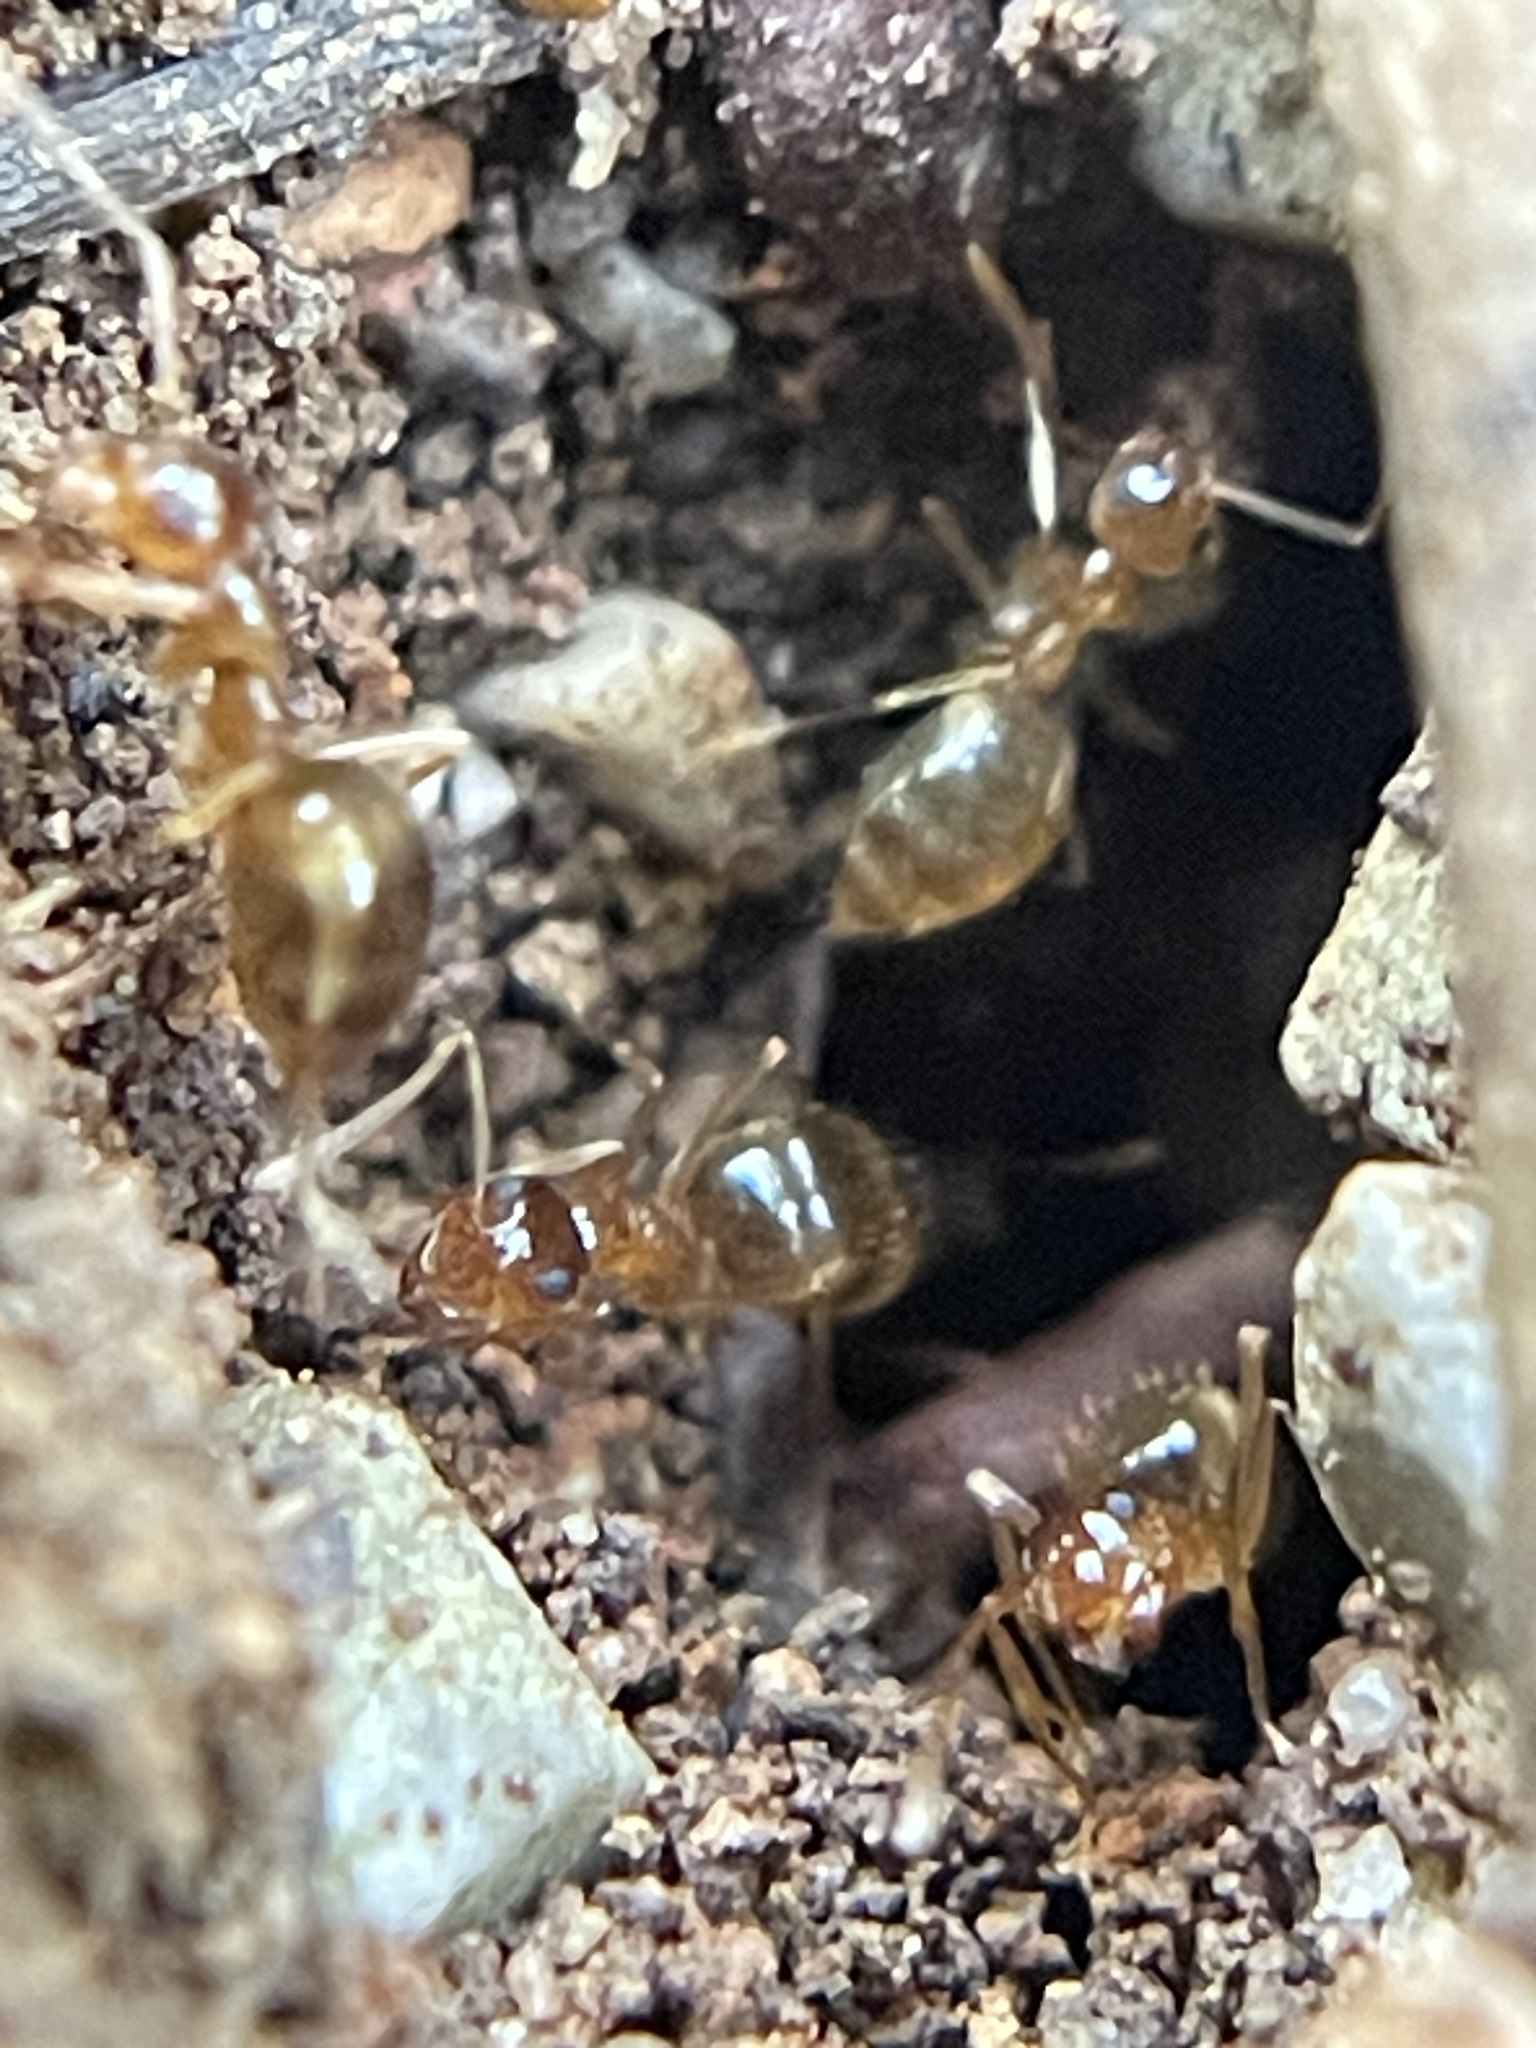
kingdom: Animalia
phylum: Arthropoda
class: Insecta
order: Hymenoptera
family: Formicidae
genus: Prenolepis
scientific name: Prenolepis imparis
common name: Small honey ant
